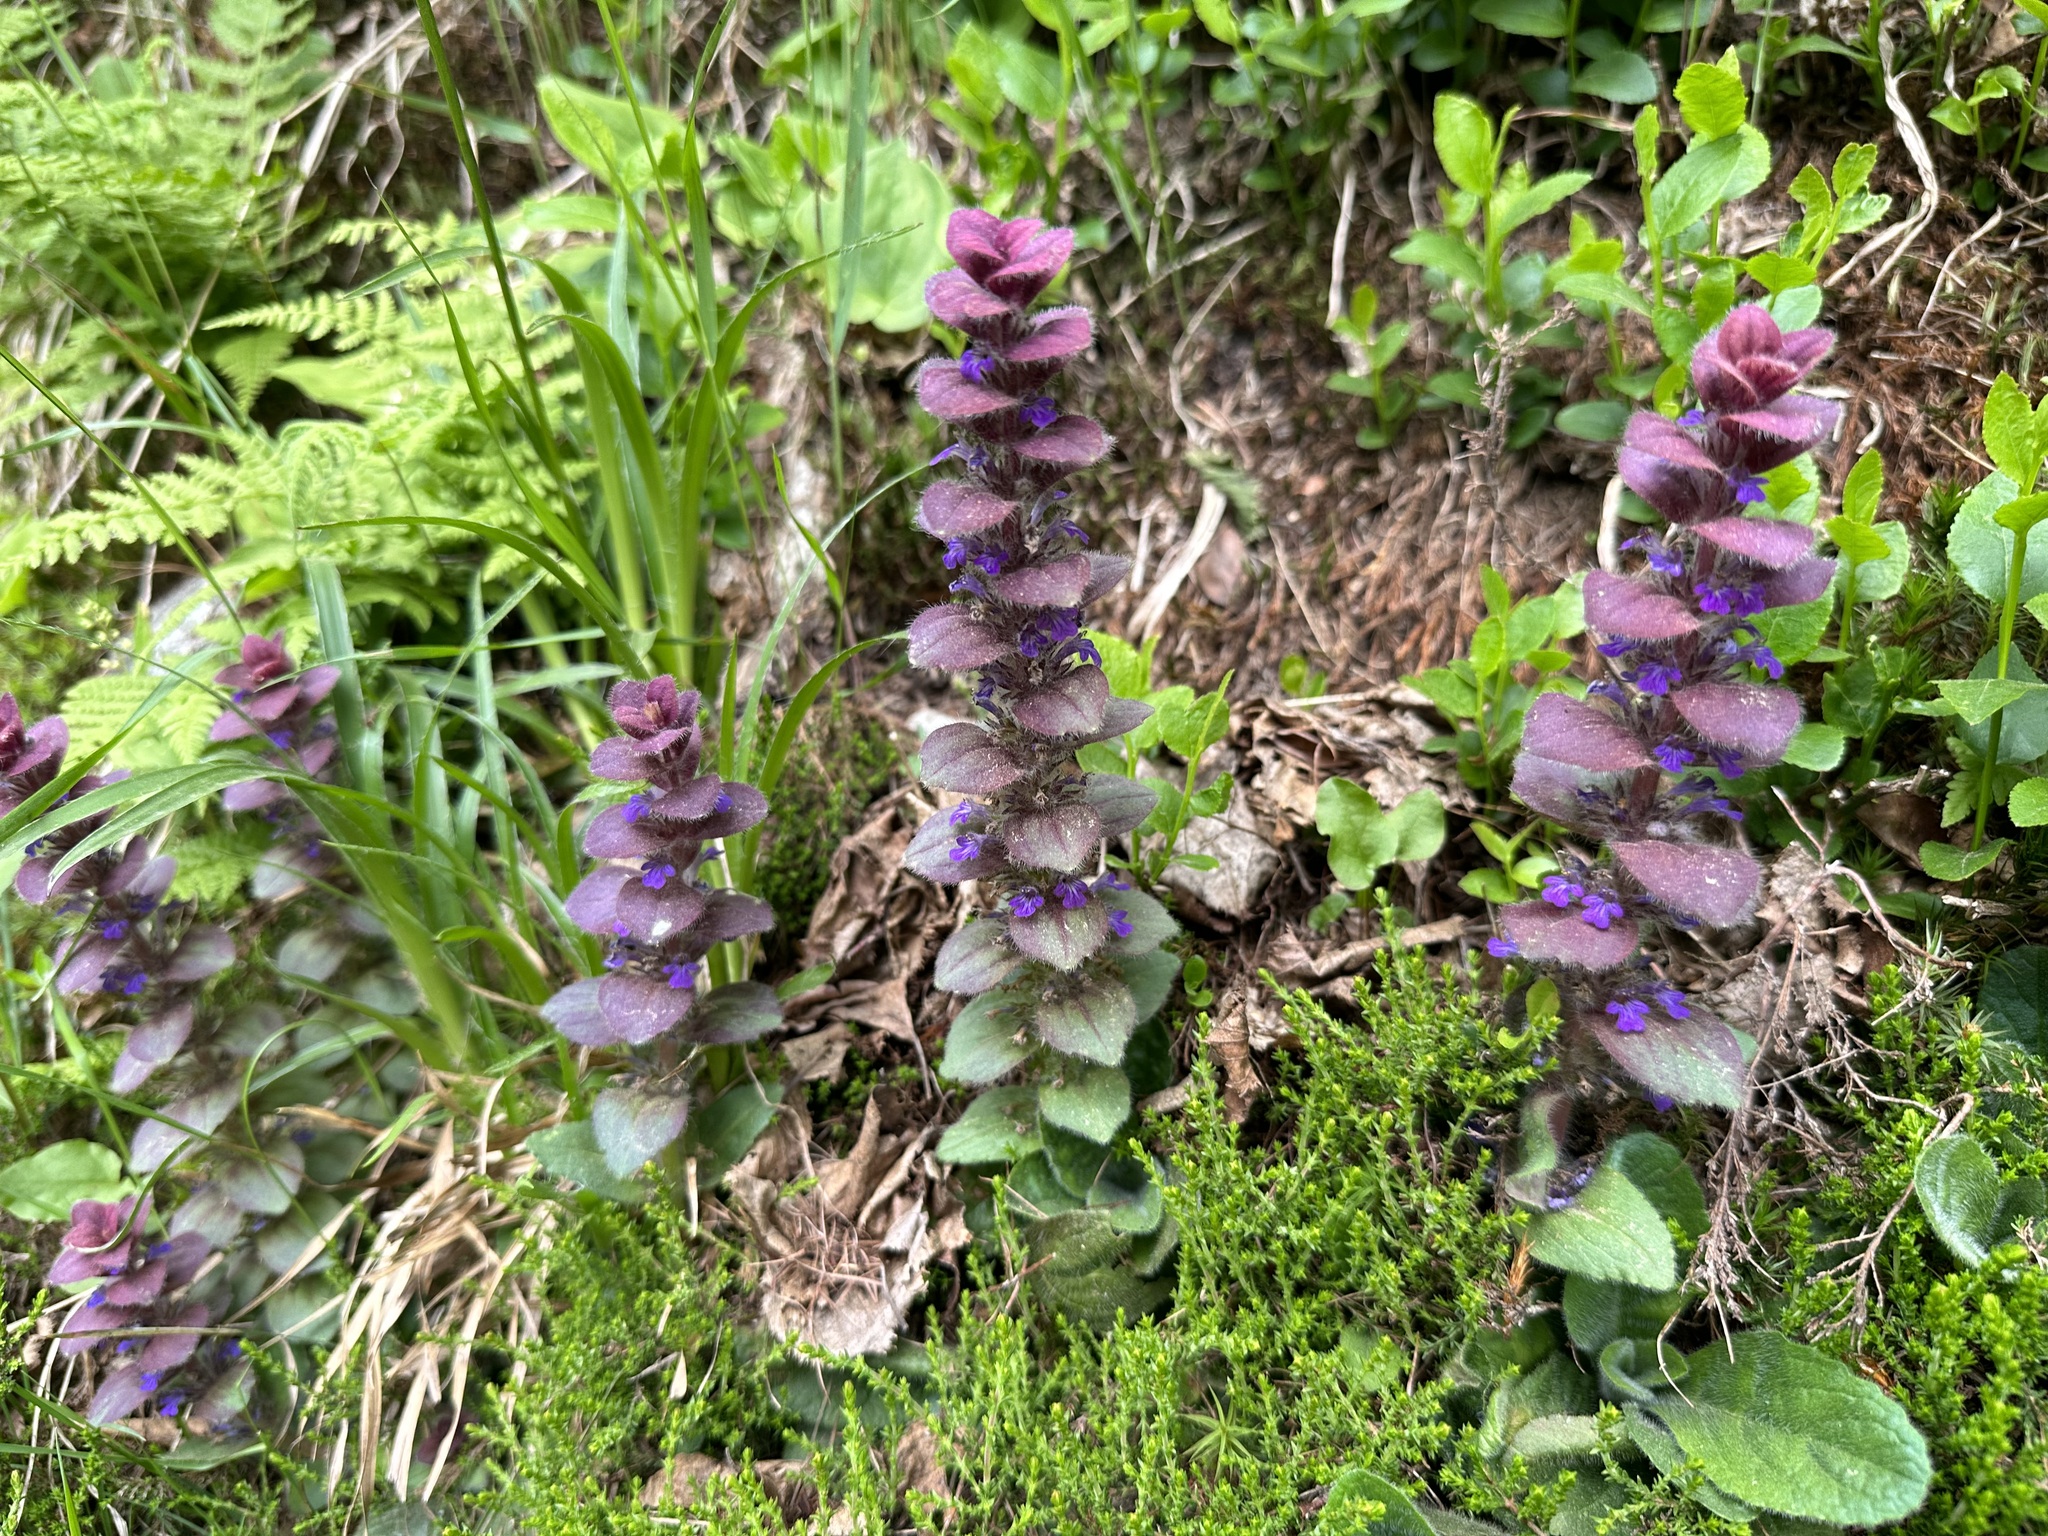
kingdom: Plantae
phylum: Tracheophyta
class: Magnoliopsida
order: Lamiales
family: Lamiaceae
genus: Ajuga
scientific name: Ajuga pyramidalis
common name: Pyramid bugle
